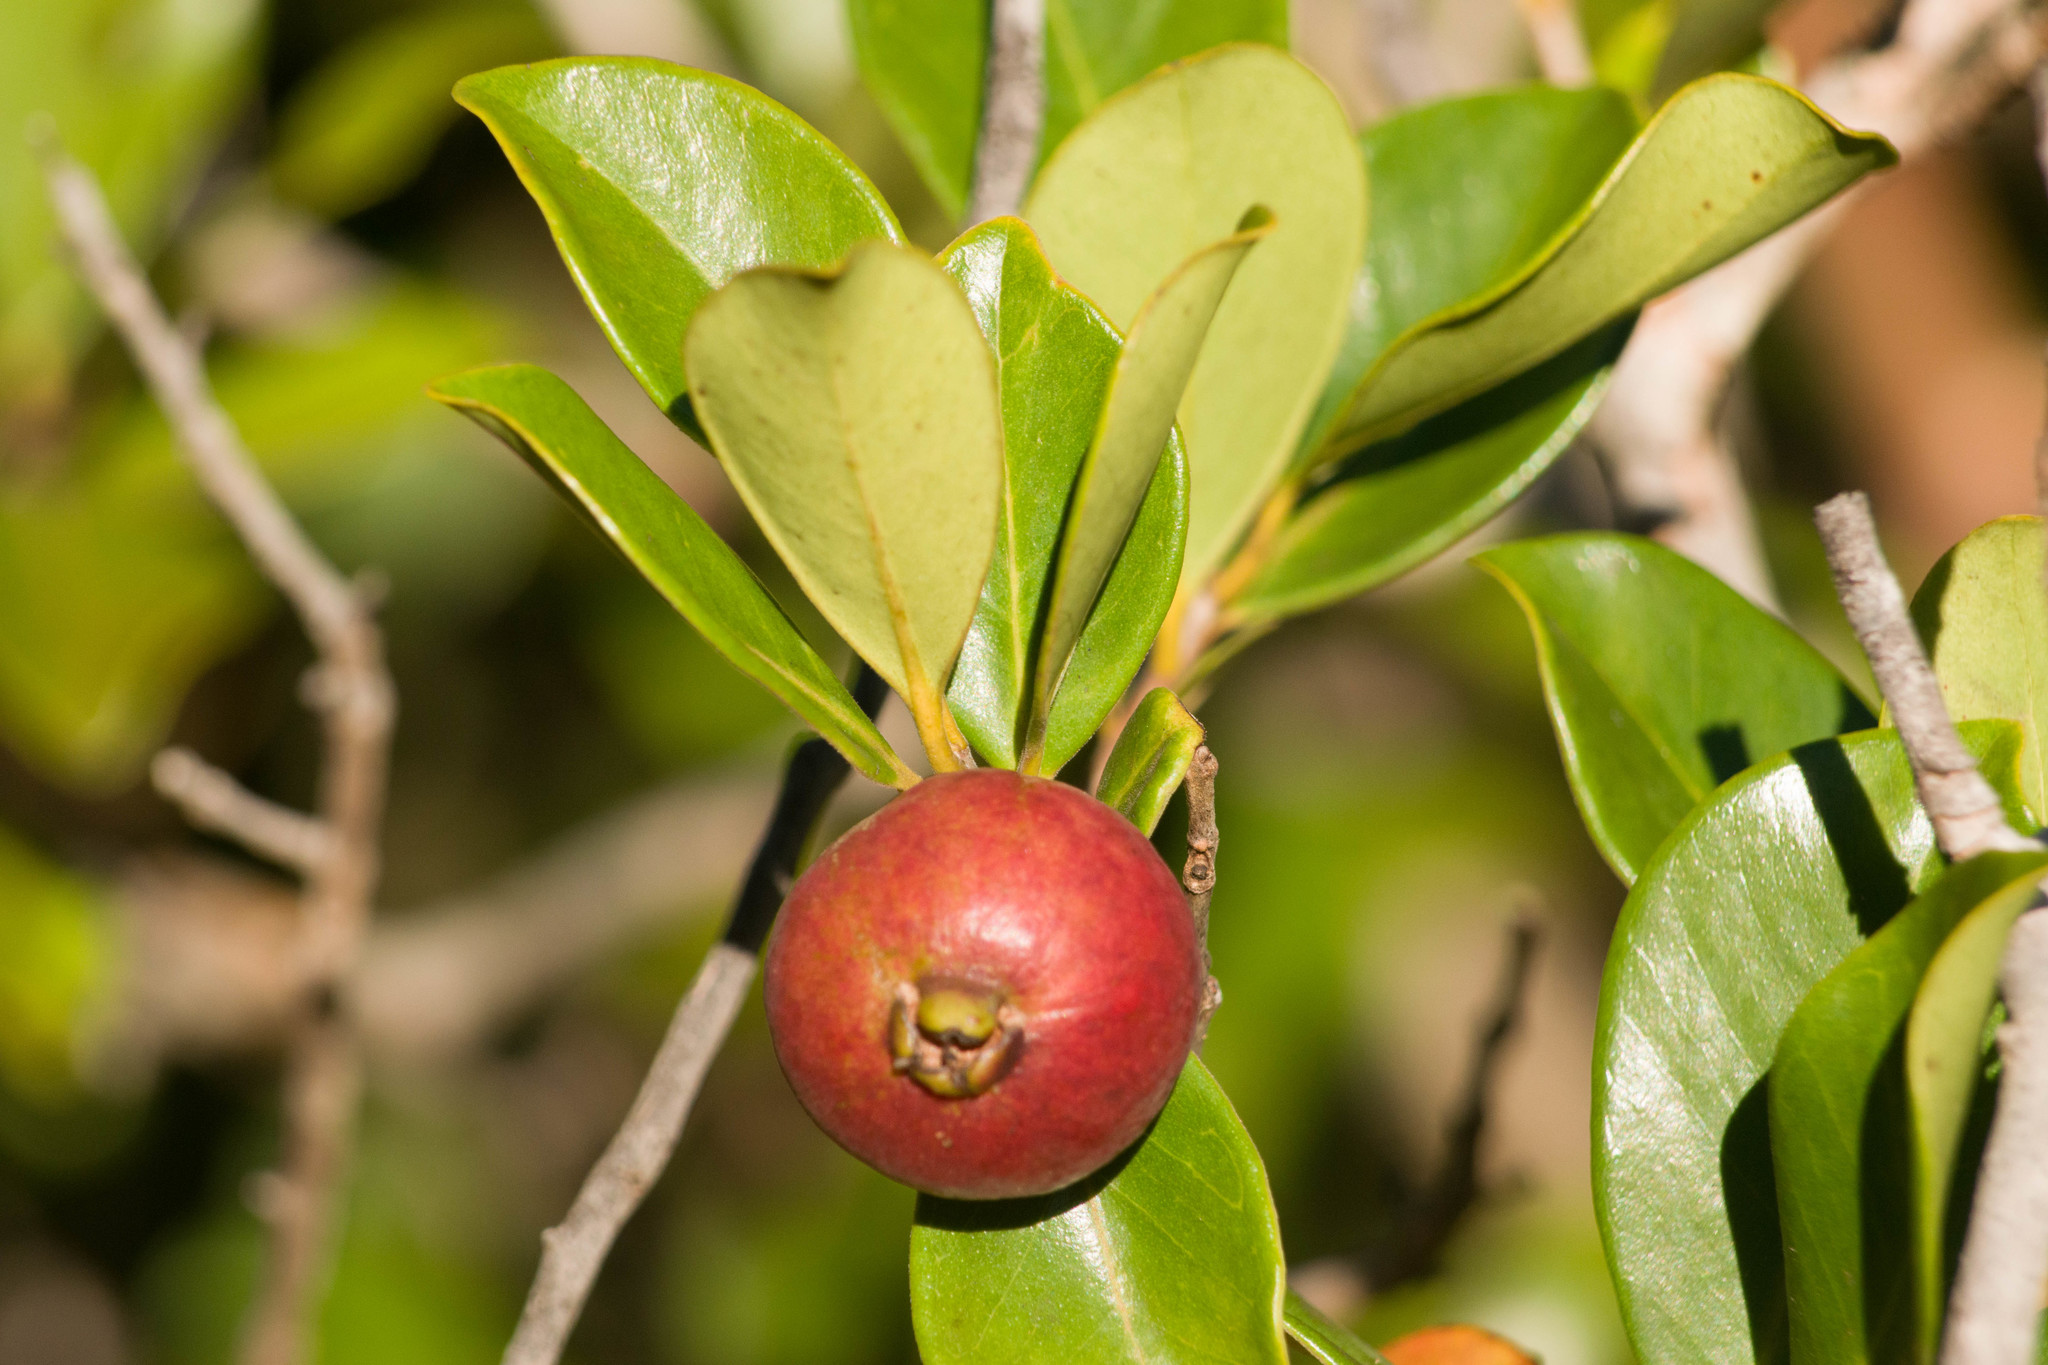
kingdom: Plantae
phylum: Tracheophyta
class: Magnoliopsida
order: Myrtales
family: Myrtaceae
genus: Psidium
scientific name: Psidium cattleianum
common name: Strawberry guava
